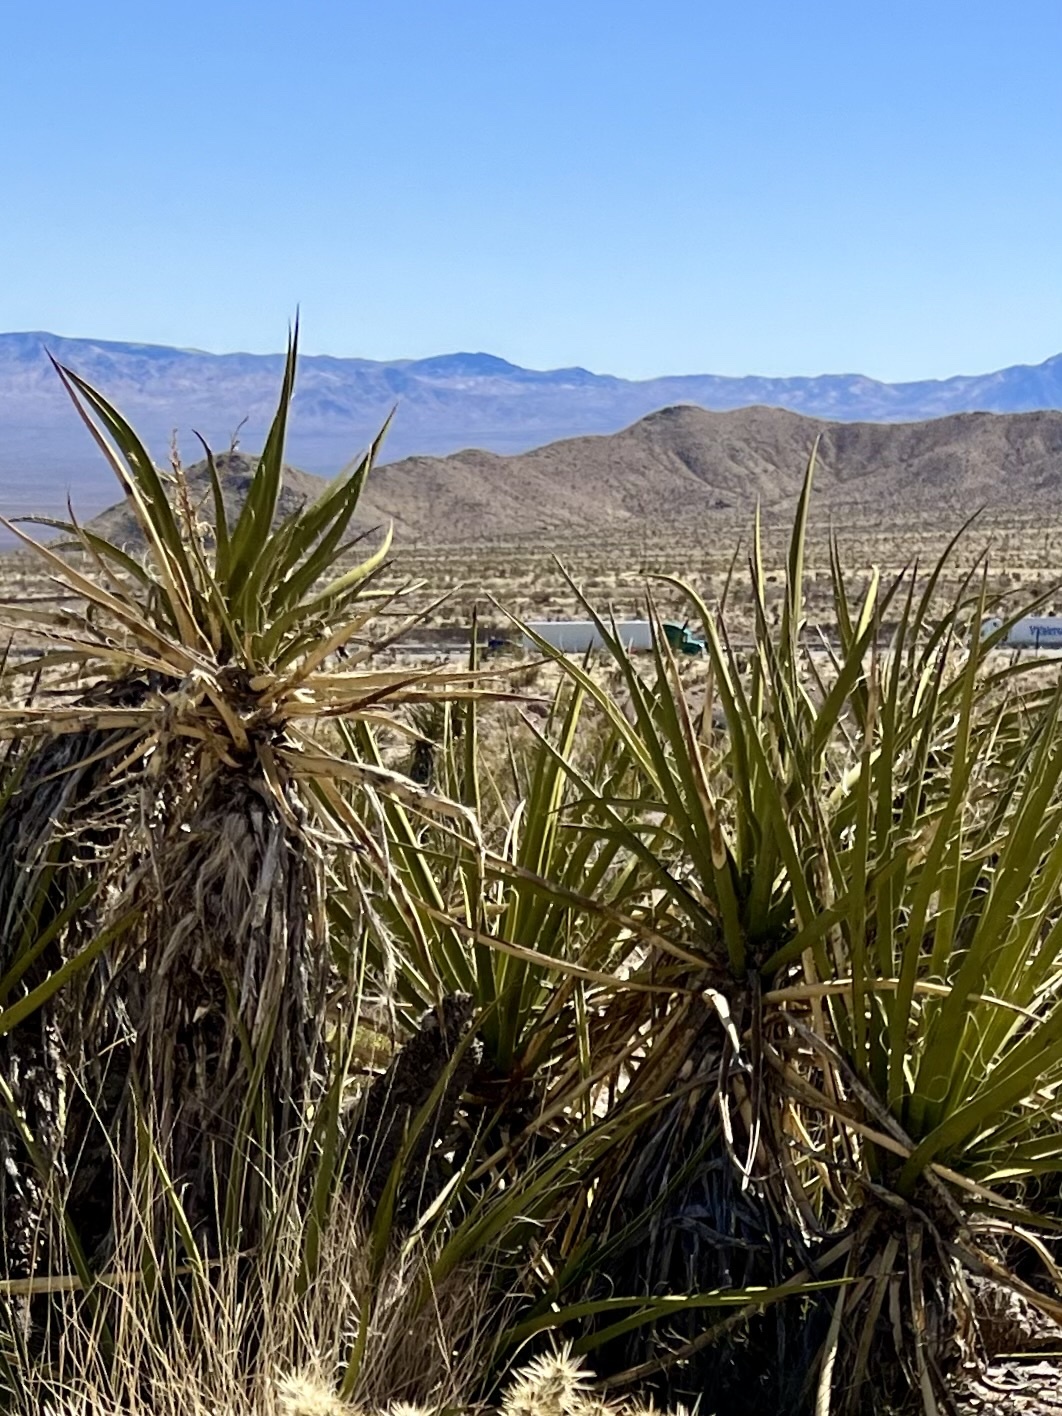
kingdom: Plantae
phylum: Tracheophyta
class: Liliopsida
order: Asparagales
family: Asparagaceae
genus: Yucca
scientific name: Yucca schidigera
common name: Mojave yucca
